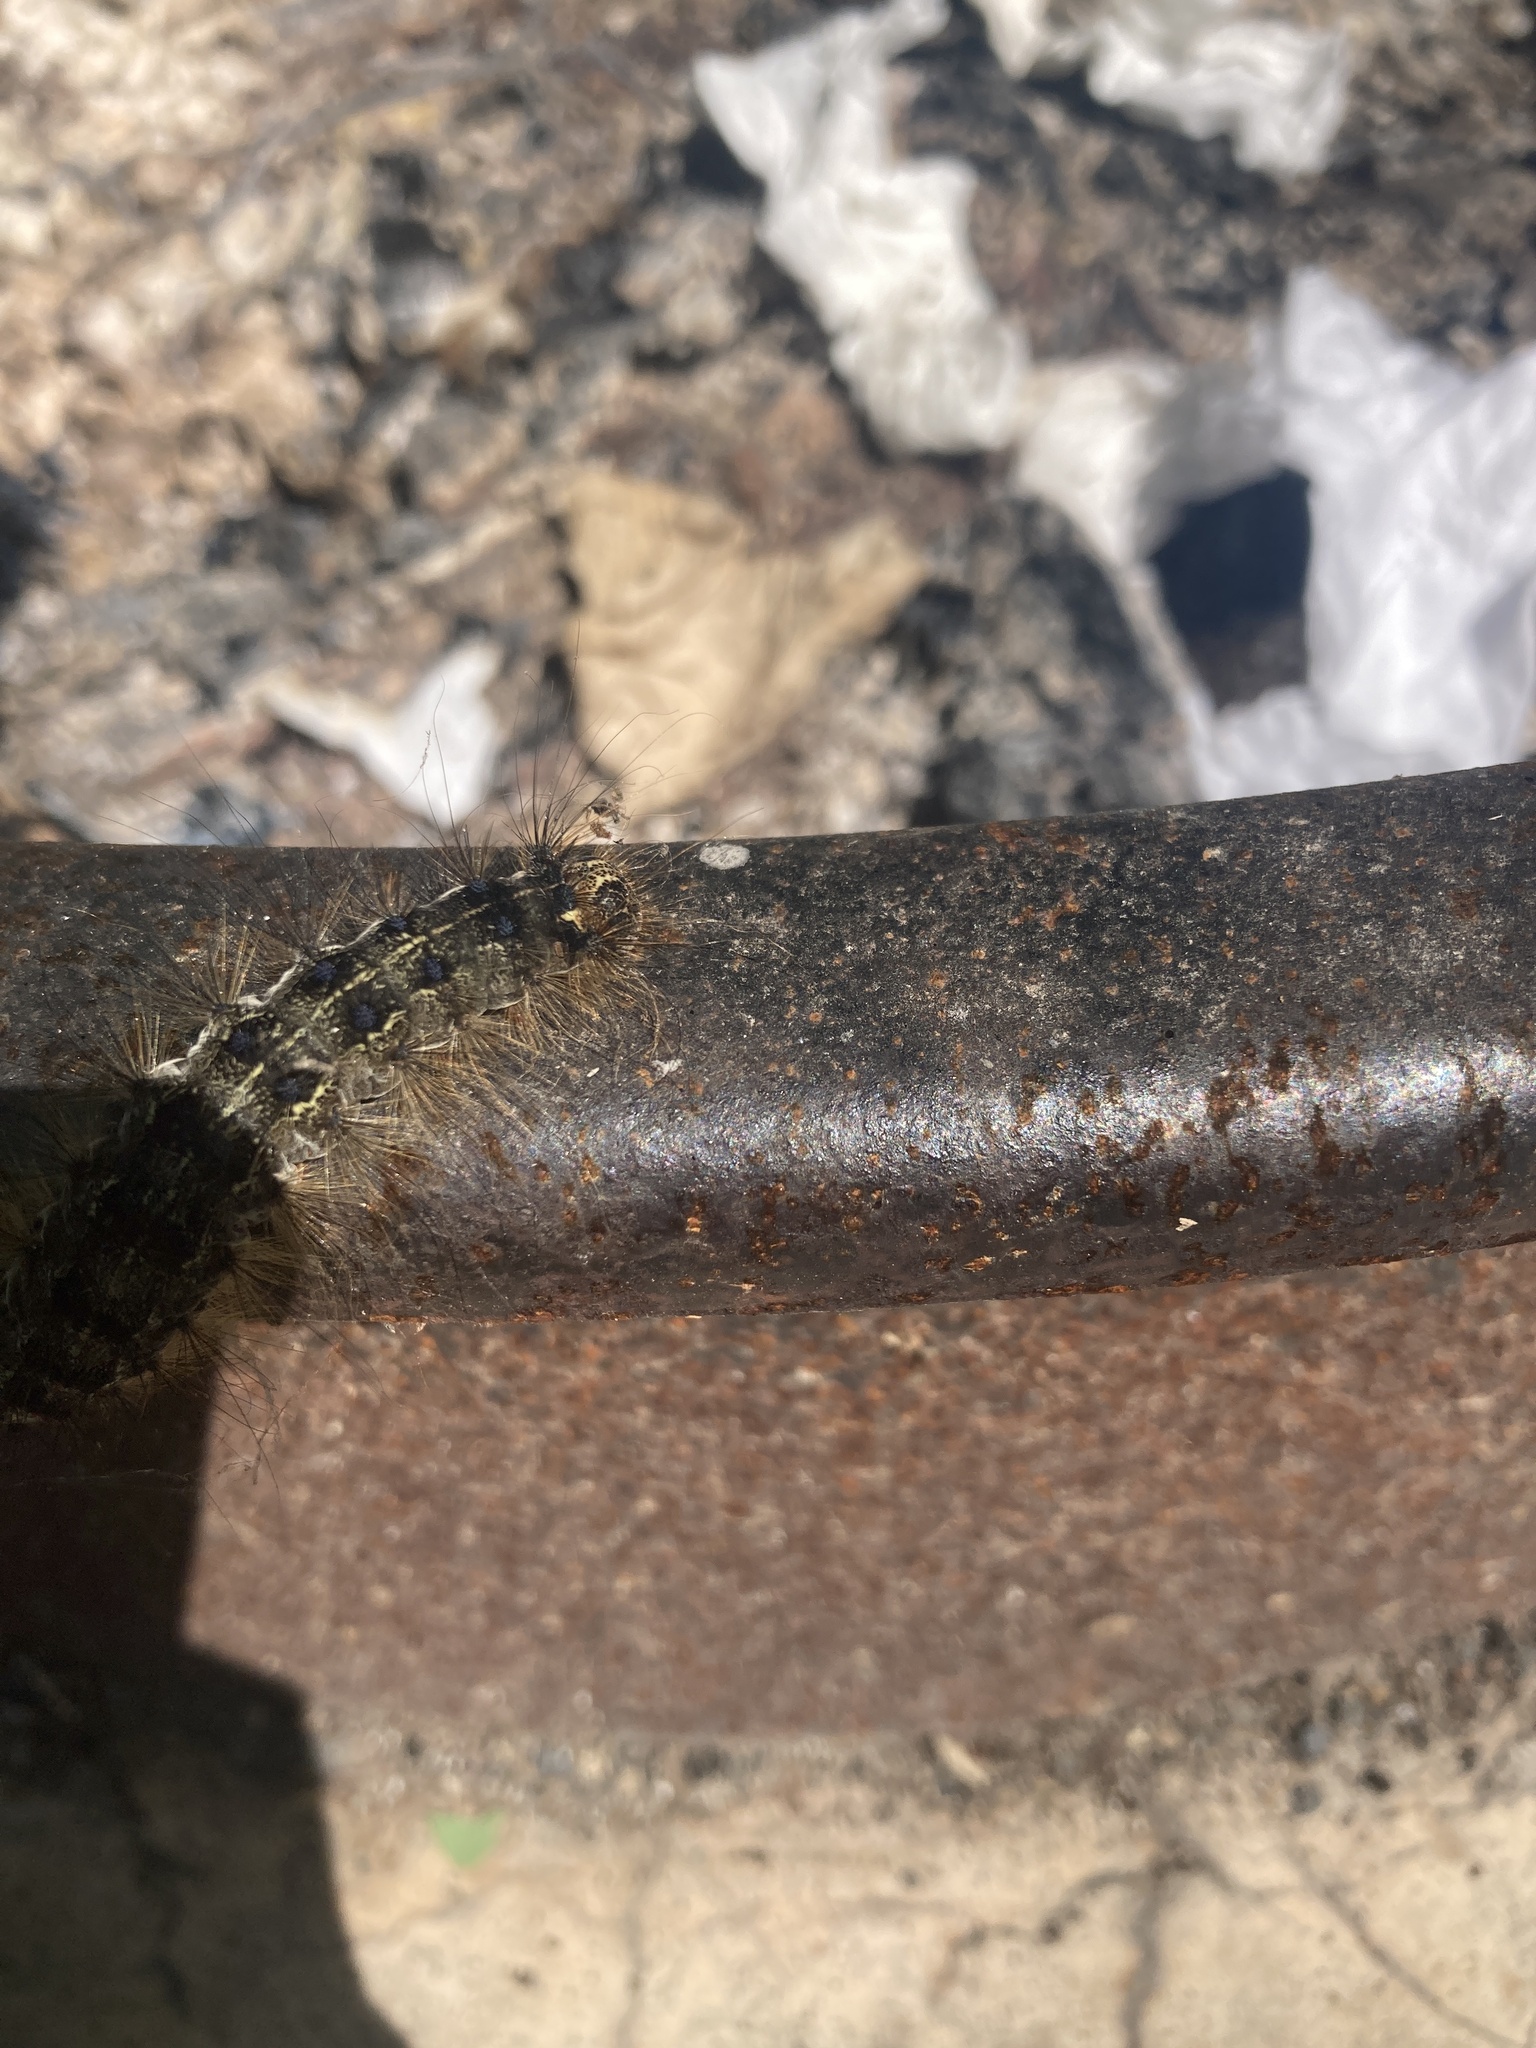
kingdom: Animalia
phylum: Arthropoda
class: Insecta
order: Lepidoptera
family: Erebidae
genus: Lymantria
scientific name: Lymantria dispar
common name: Gypsy moth
